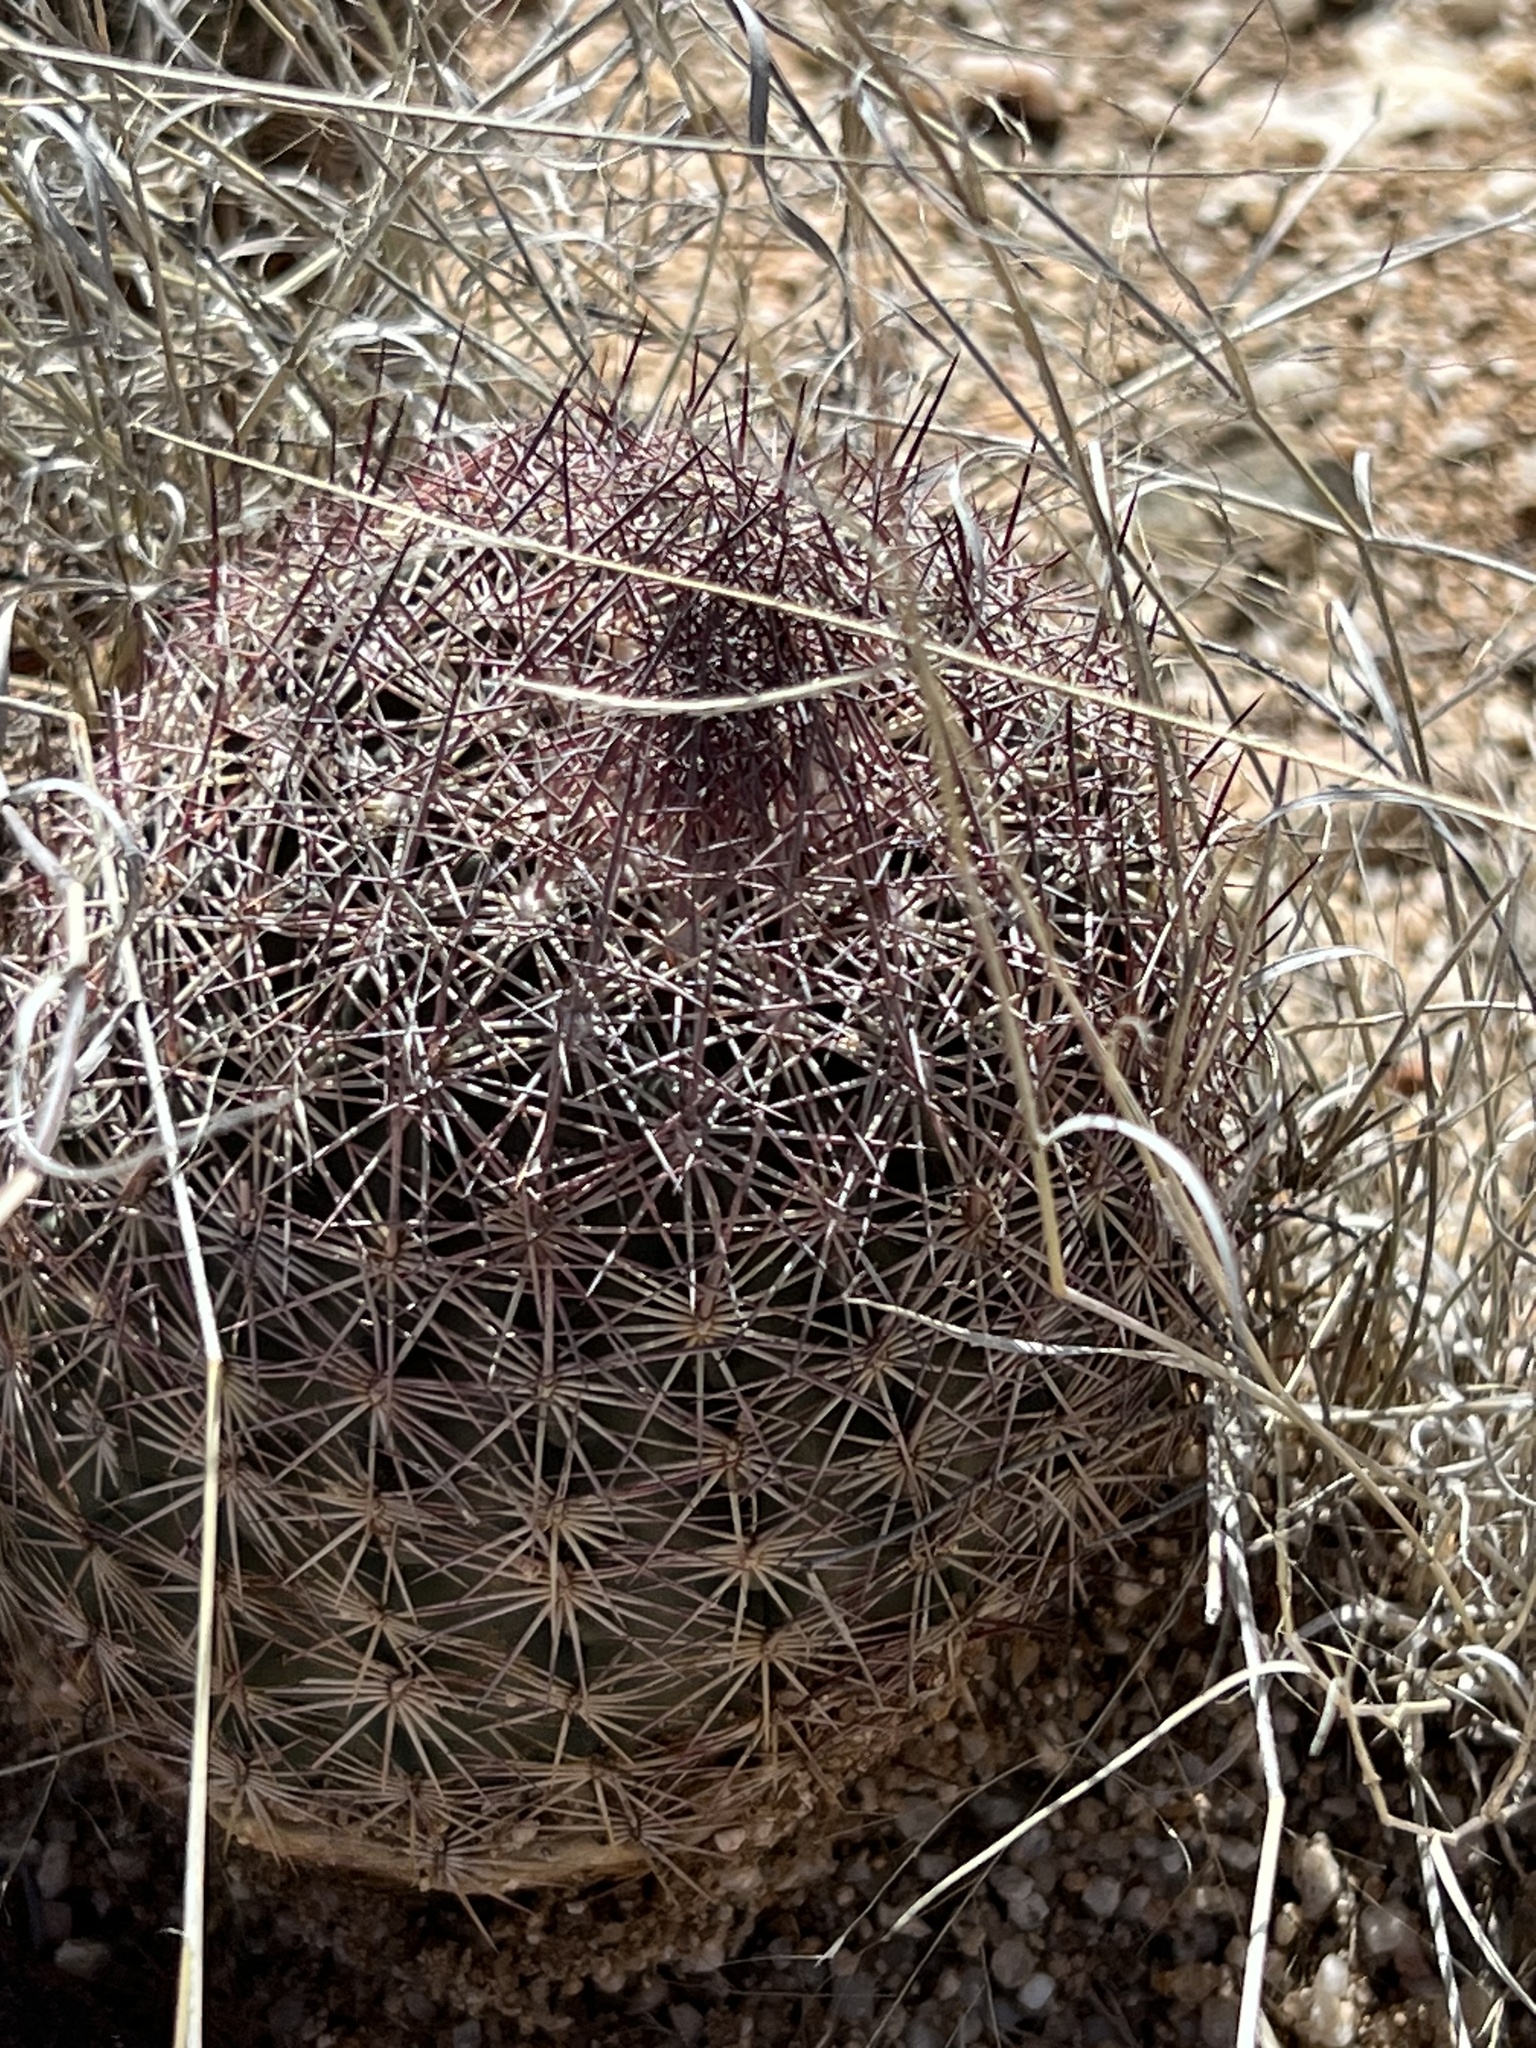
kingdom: Plantae
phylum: Tracheophyta
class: Magnoliopsida
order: Caryophyllales
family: Cactaceae
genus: Sclerocactus
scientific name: Sclerocactus johnsonii
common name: Eight-spine fishhook cactus
